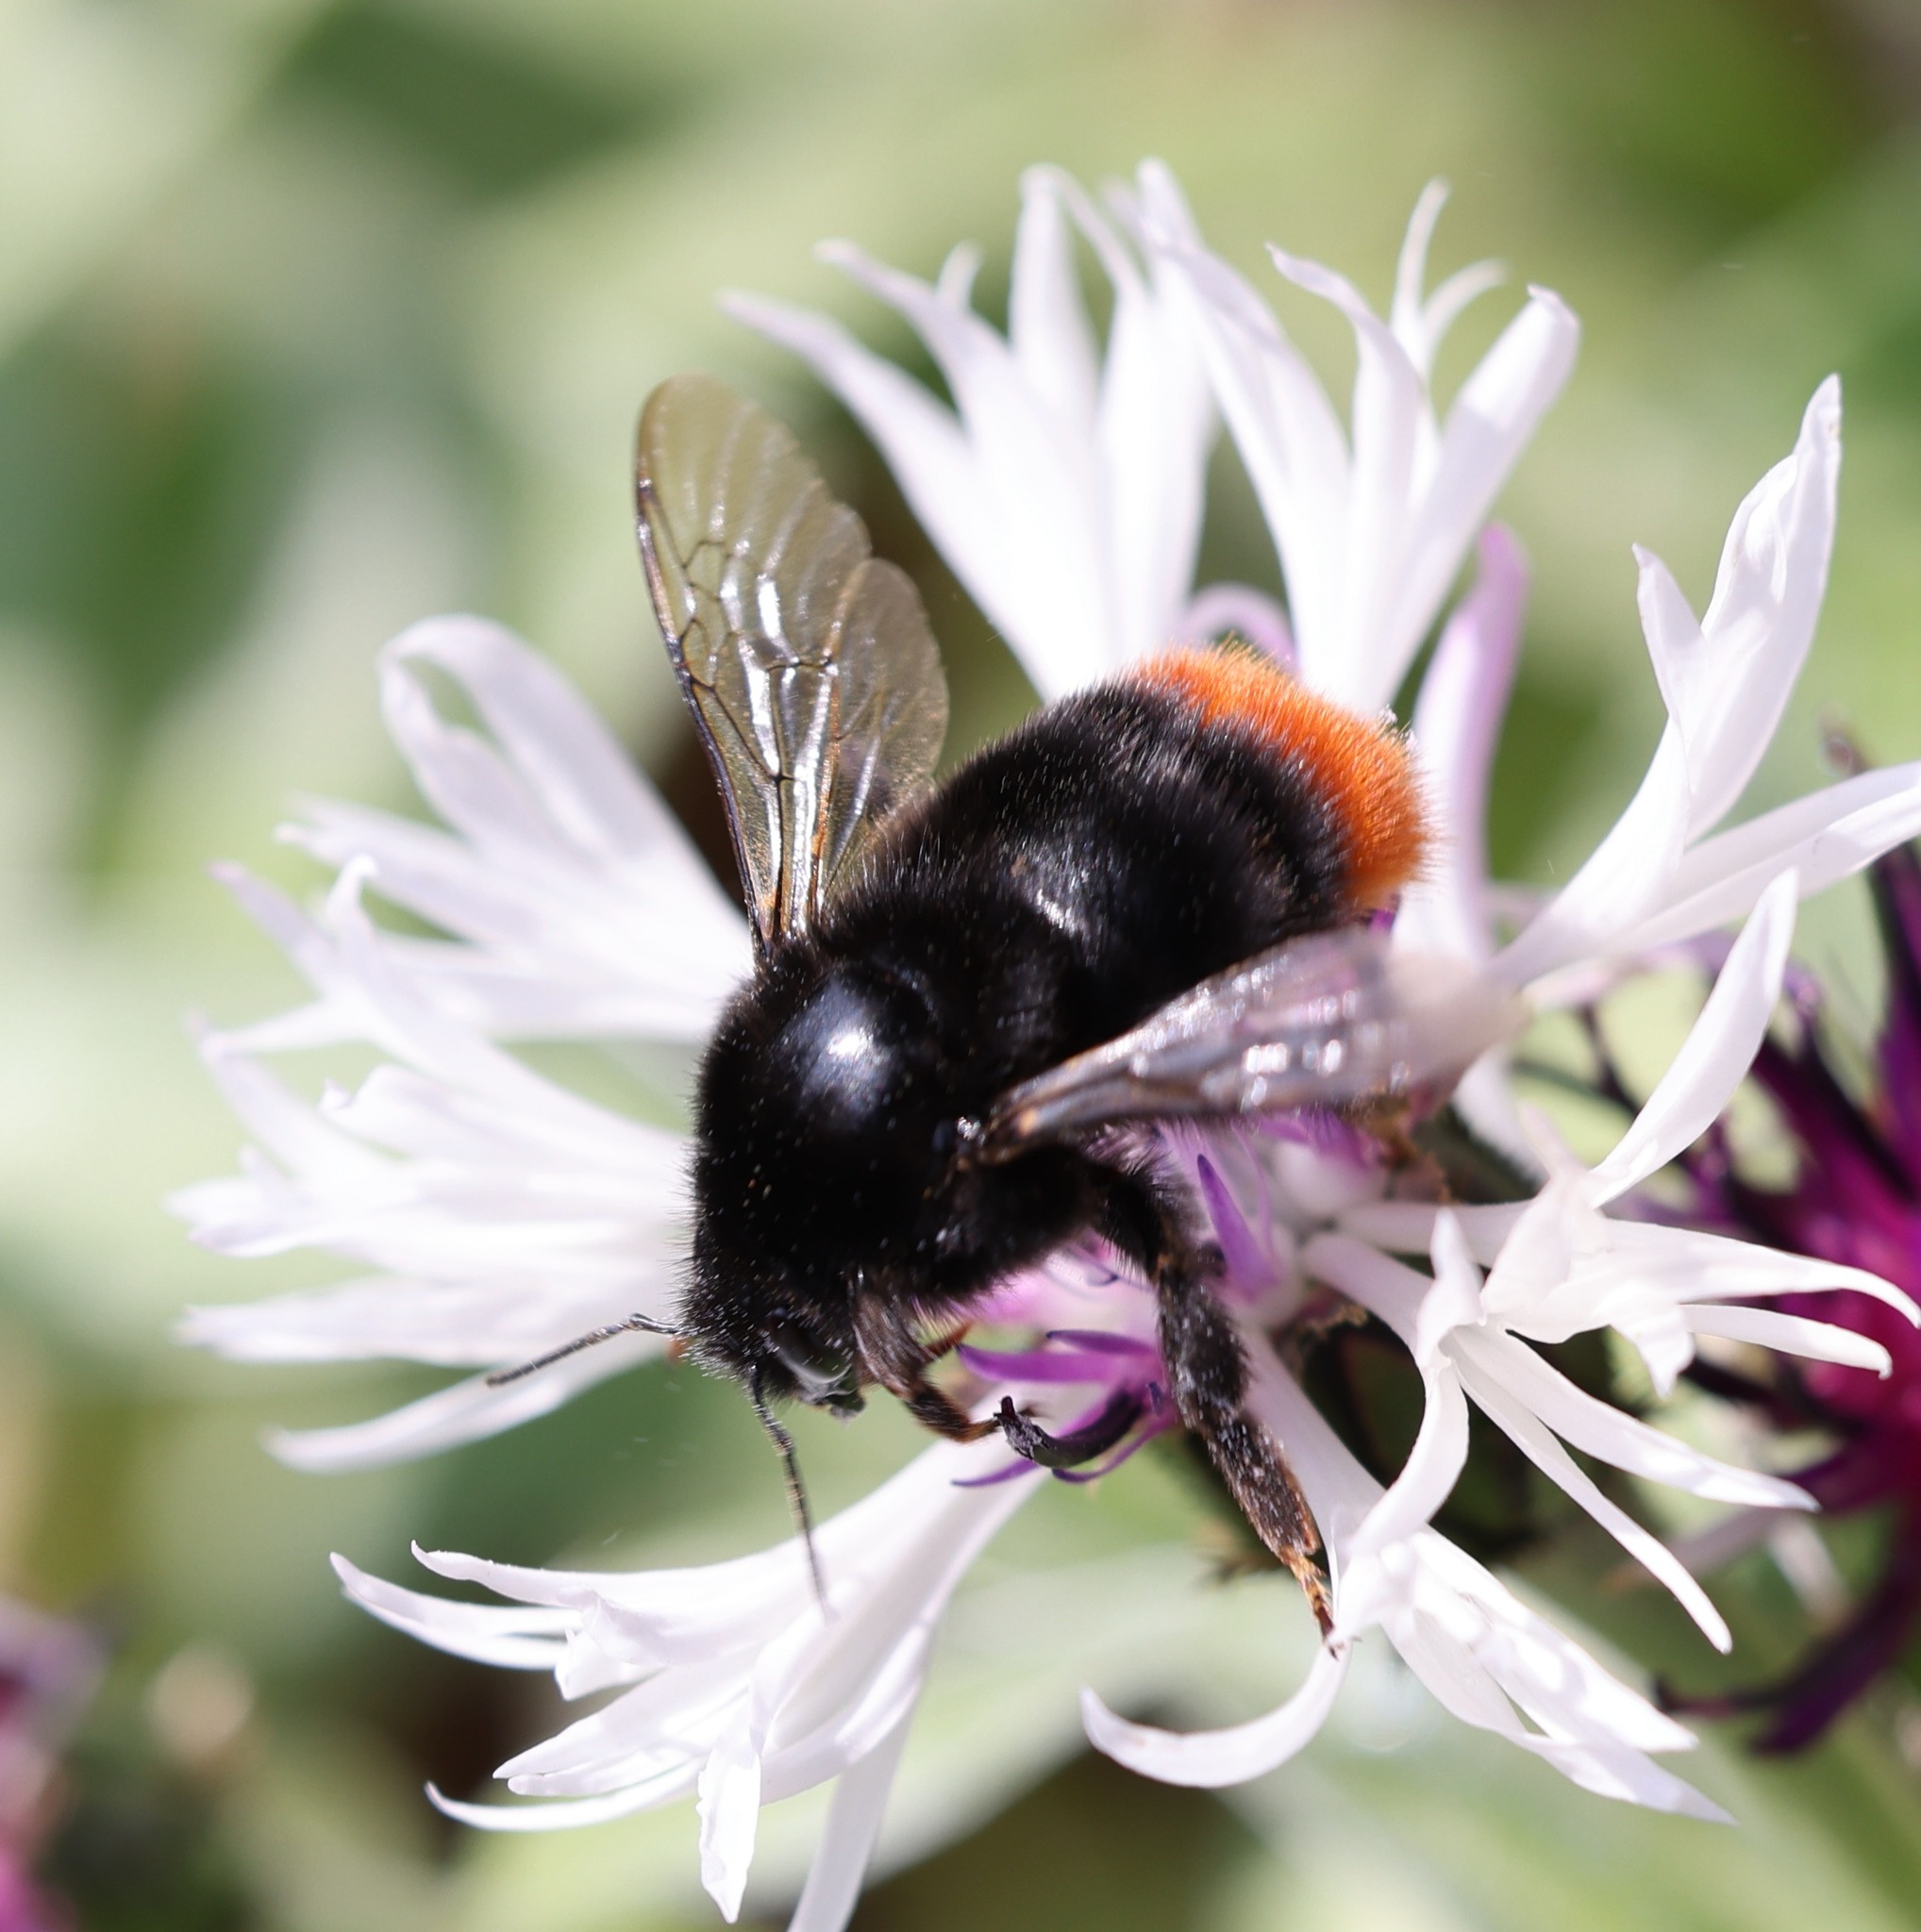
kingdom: Animalia
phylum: Arthropoda
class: Insecta
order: Hymenoptera
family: Apidae
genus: Bombus
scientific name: Bombus lapidarius
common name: Large red-tailed humble-bee
